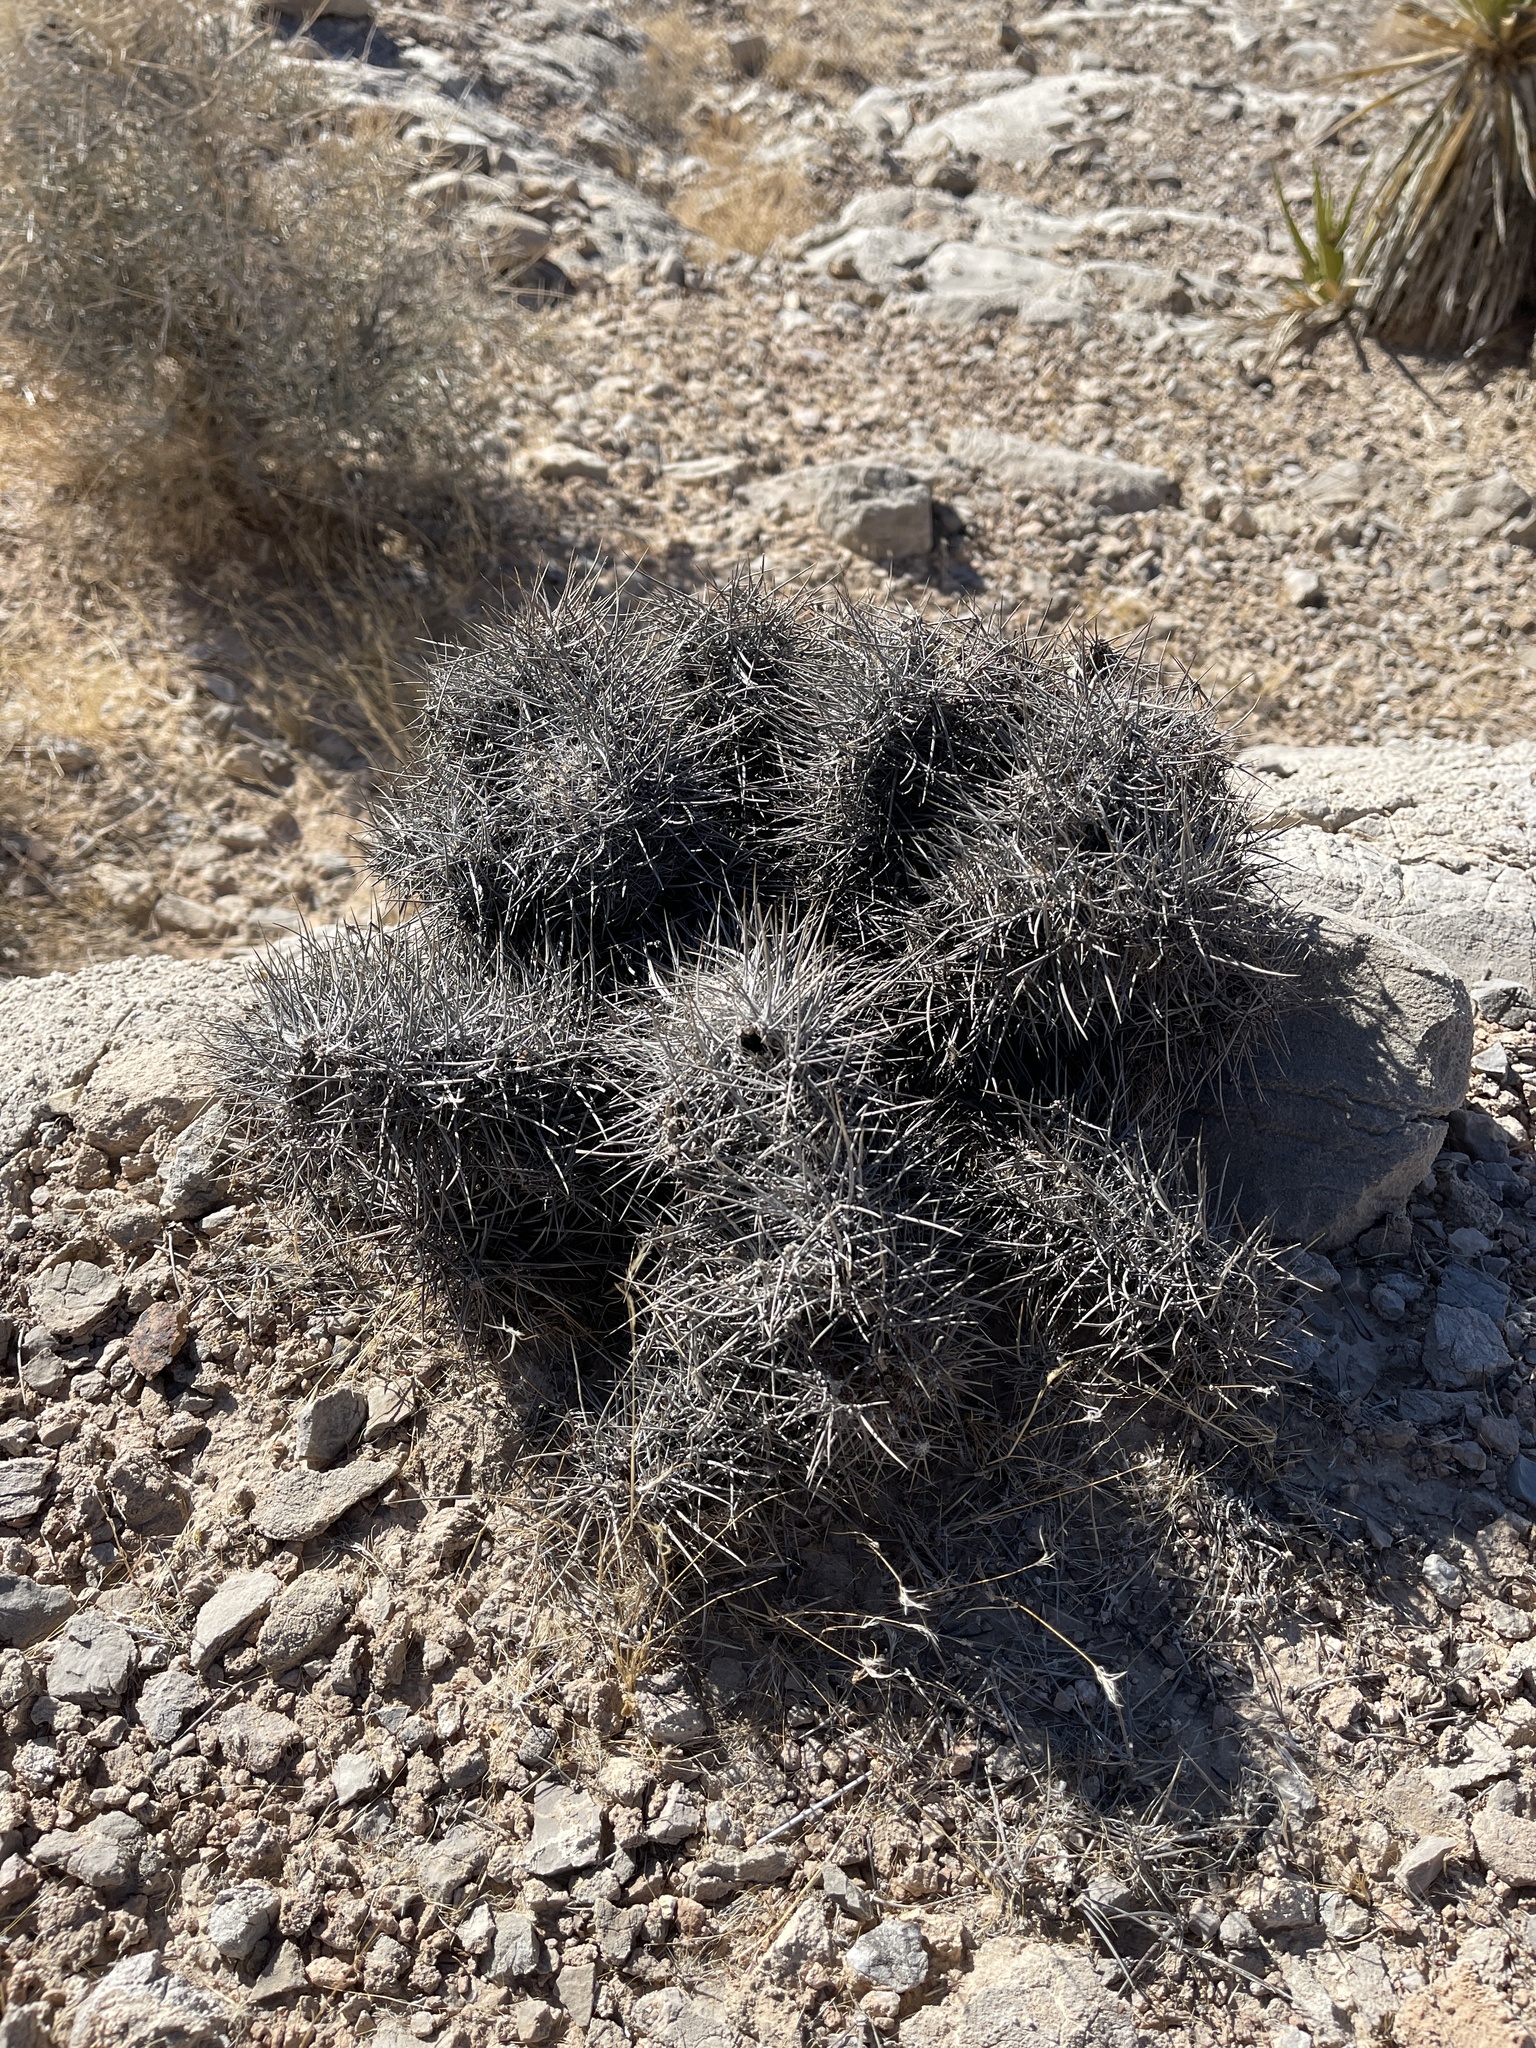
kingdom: Plantae
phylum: Tracheophyta
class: Magnoliopsida
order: Caryophyllales
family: Cactaceae
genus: Echinocactus
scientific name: Echinocactus polycephalus
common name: Cottontop cactus
